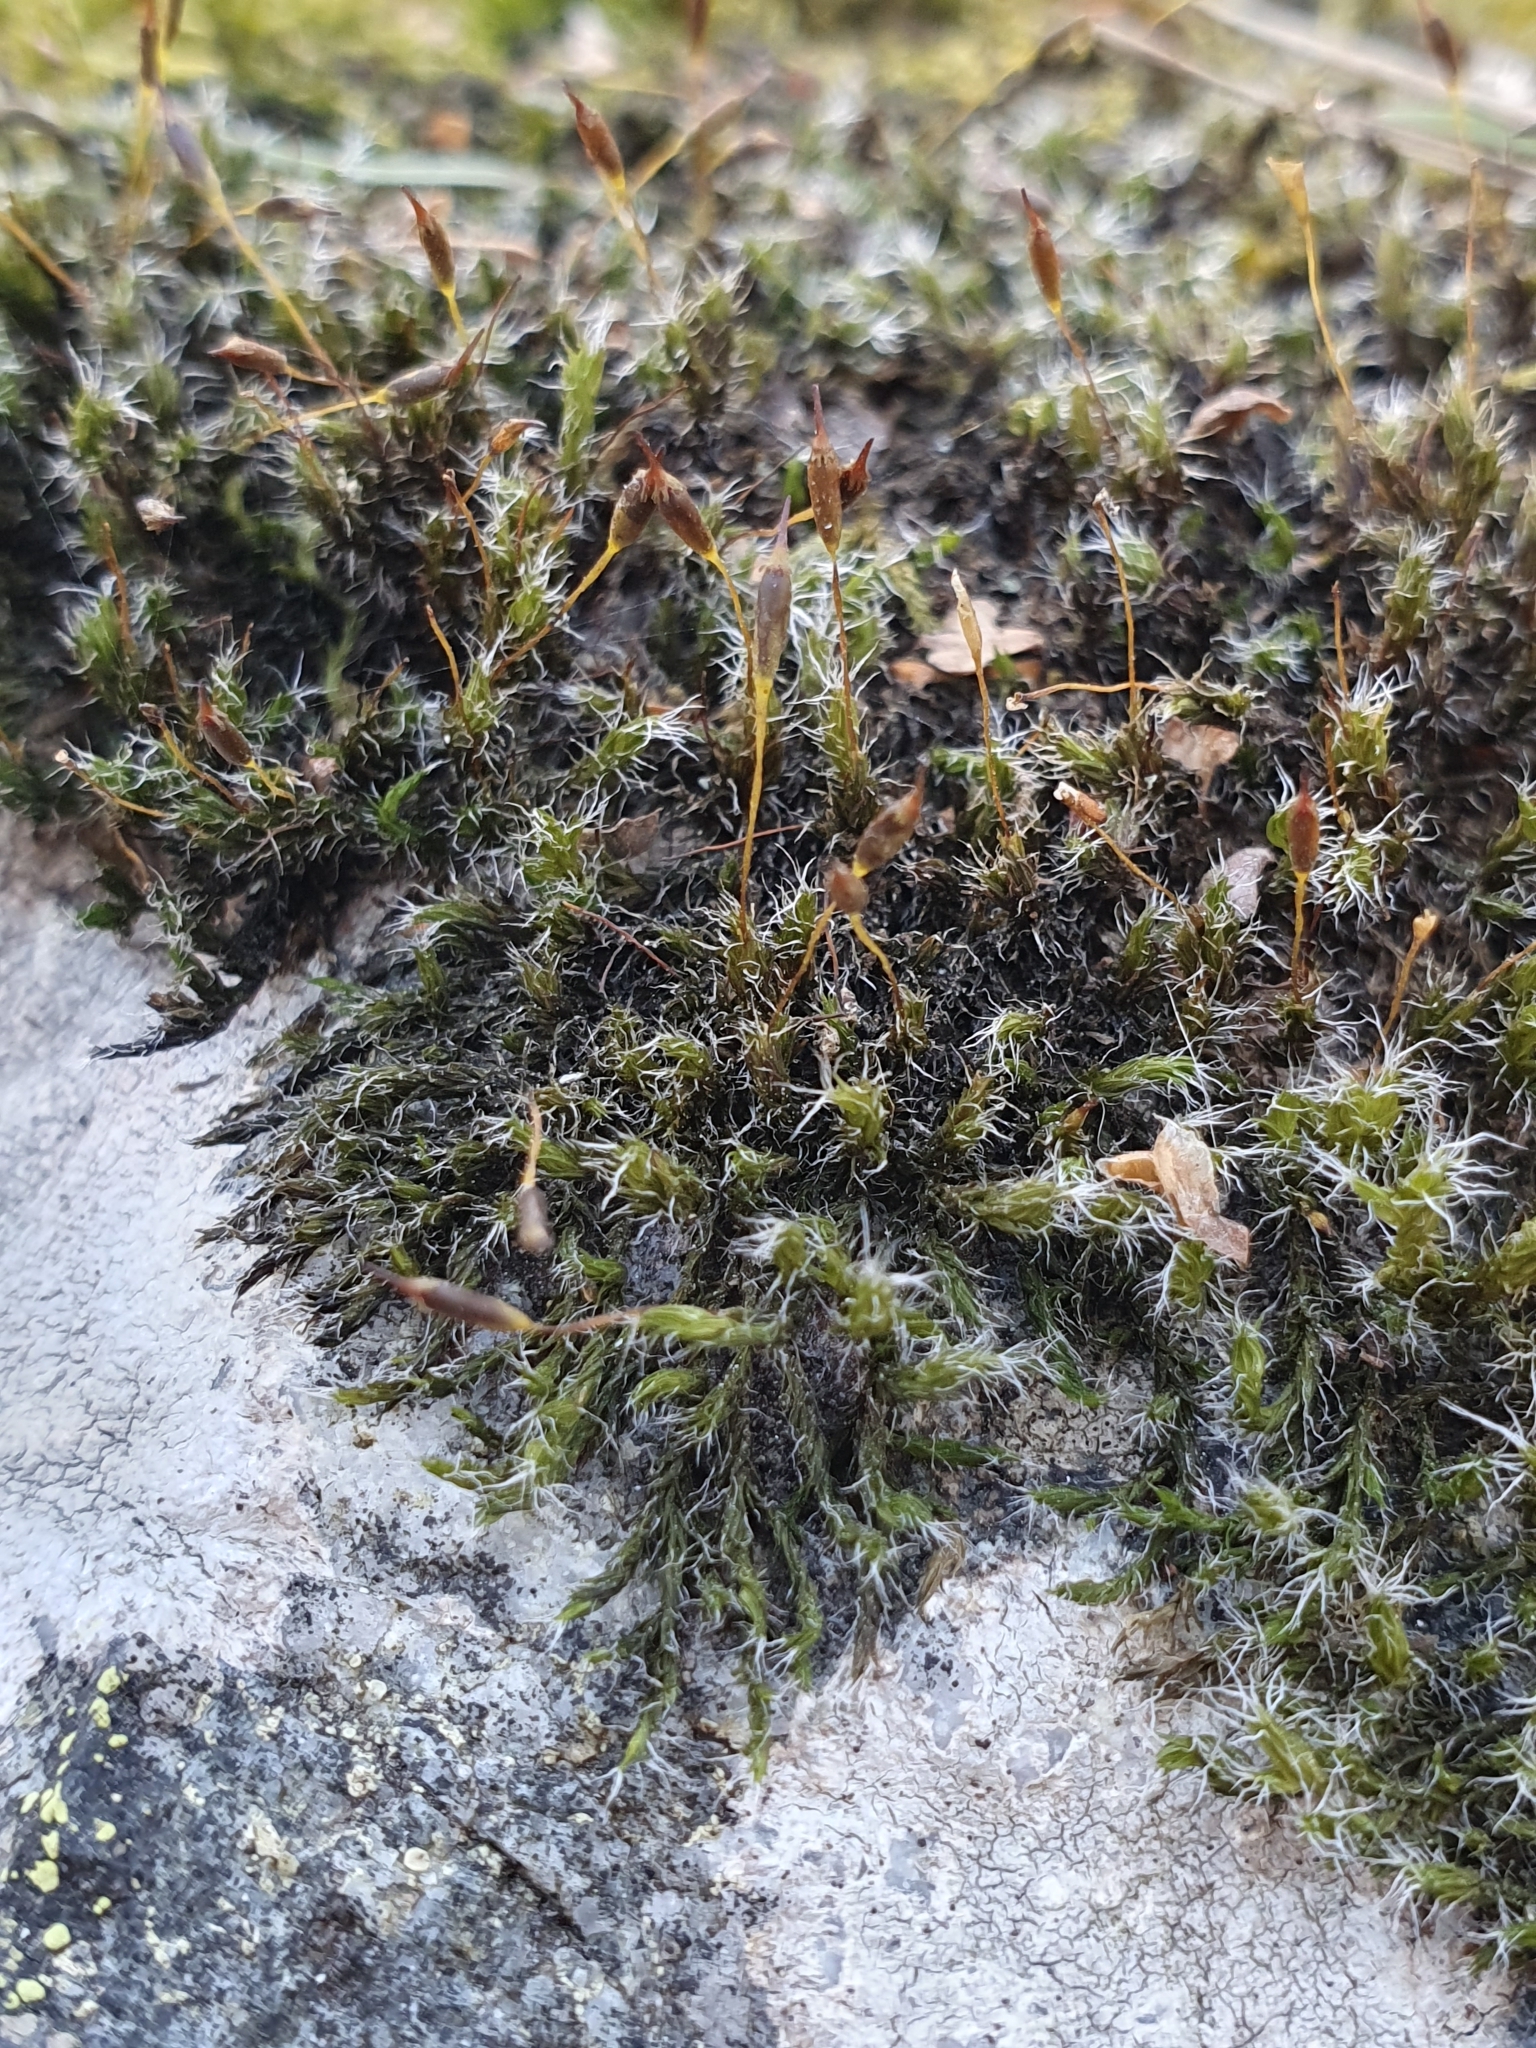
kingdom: Plantae
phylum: Bryophyta
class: Bryopsida
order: Grimmiales
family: Grimmiaceae
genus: Bucklandiella
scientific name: Bucklandiella heterosticha
